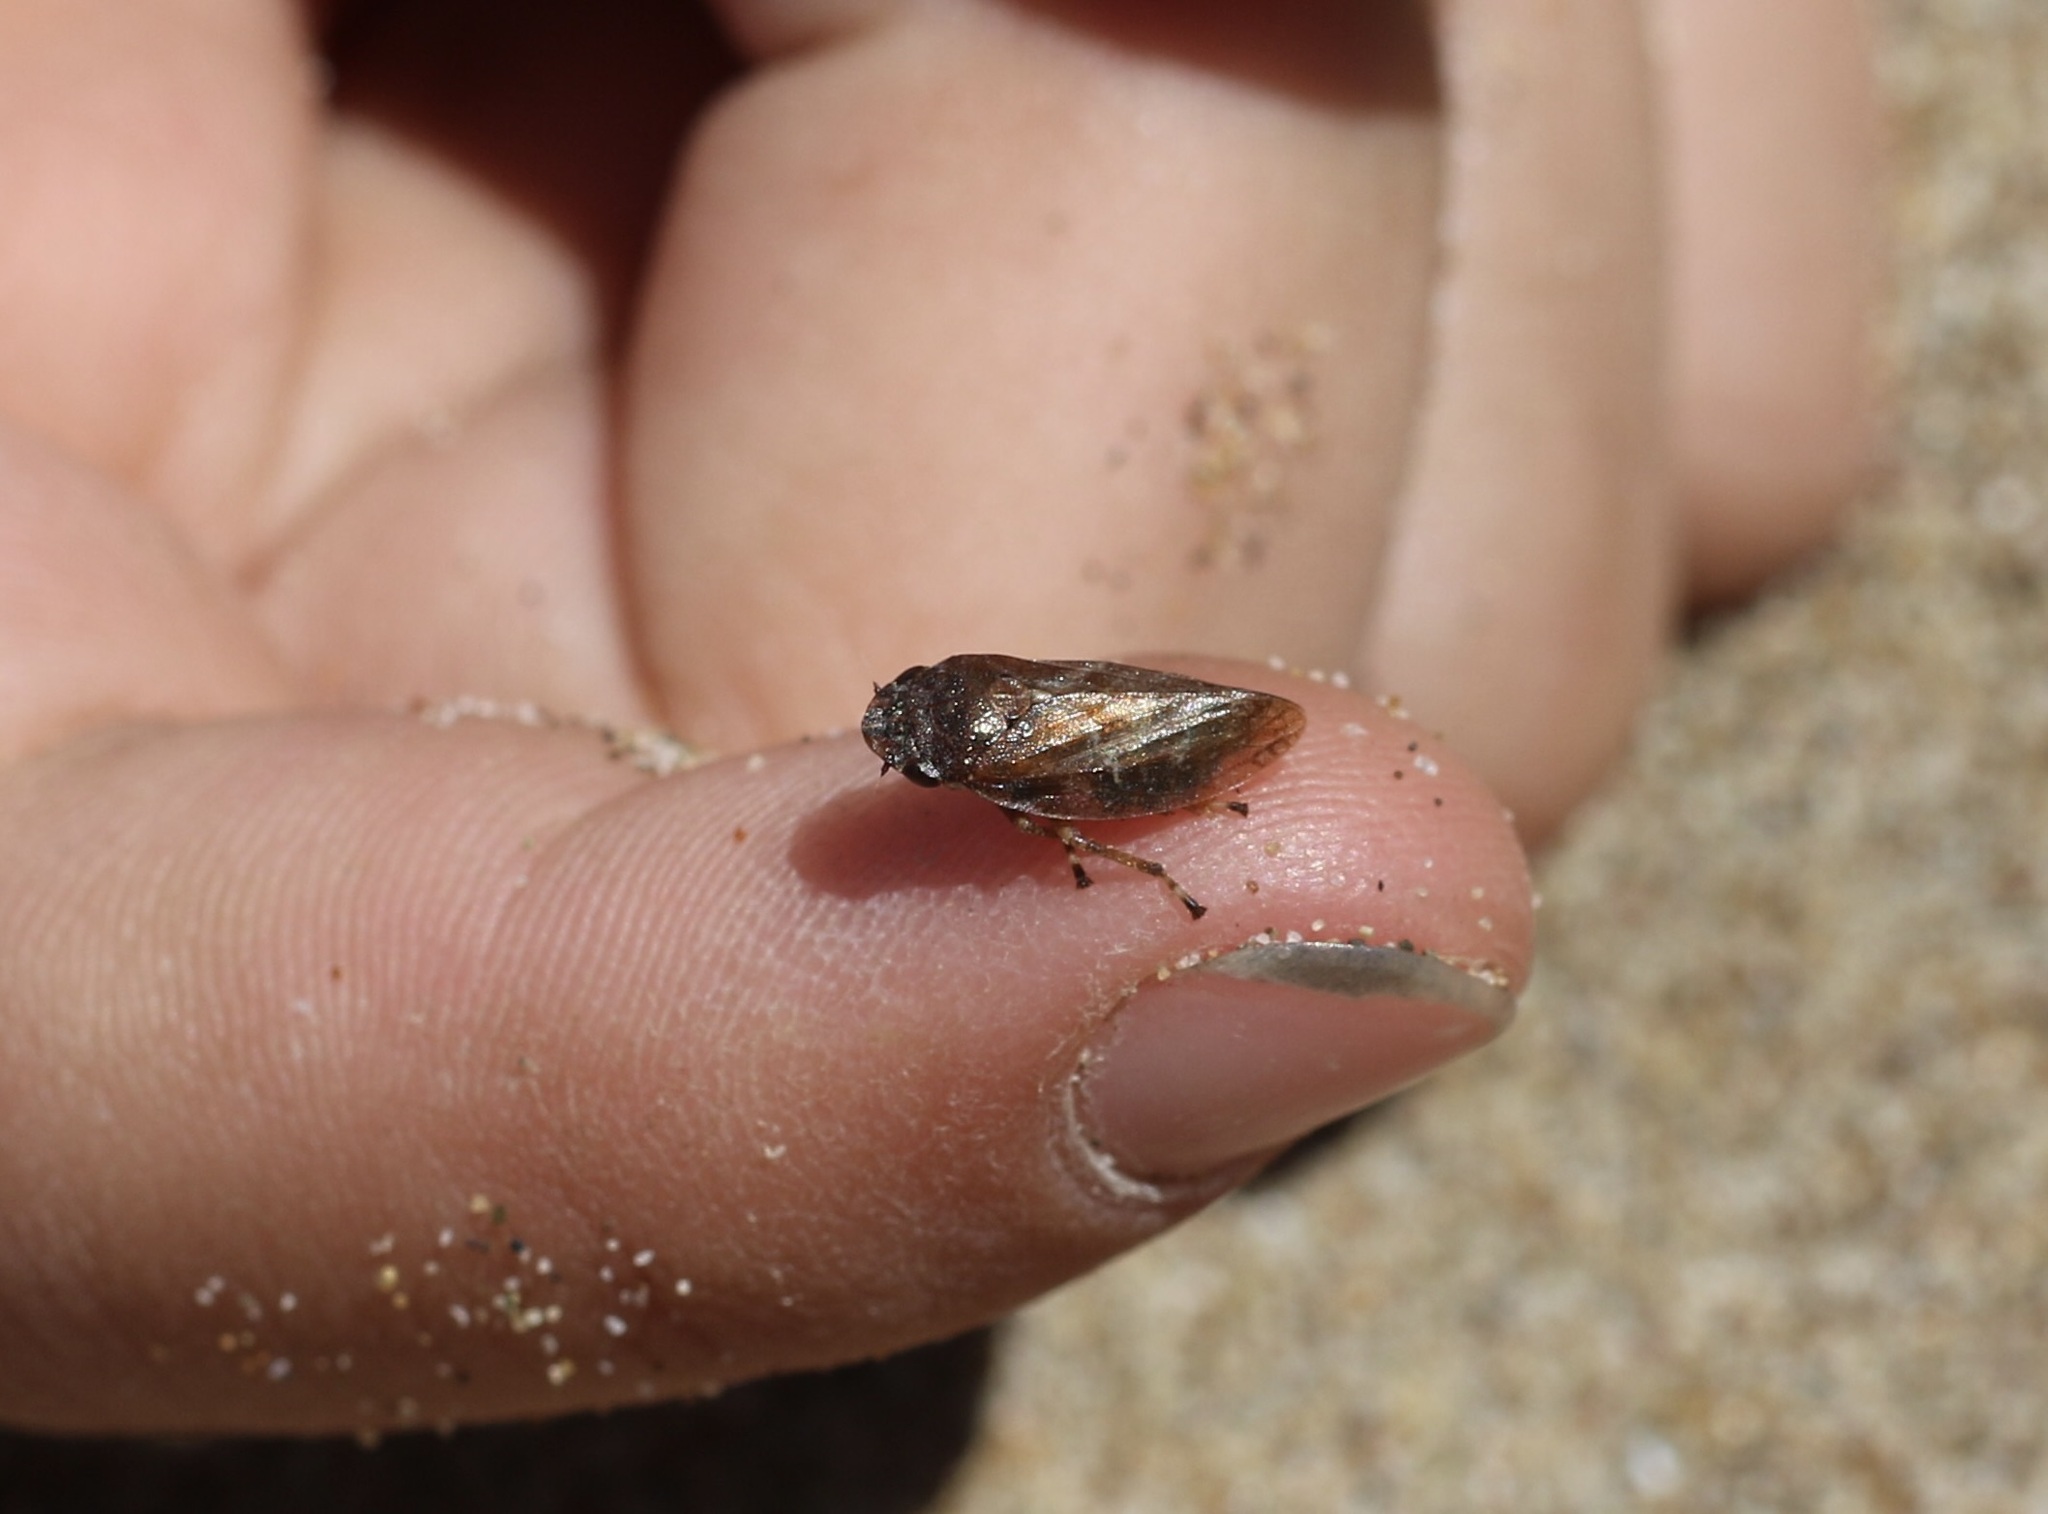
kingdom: Animalia
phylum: Arthropoda
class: Insecta
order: Hemiptera
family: Aphrophoridae
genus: Aphrophora
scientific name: Aphrophora
